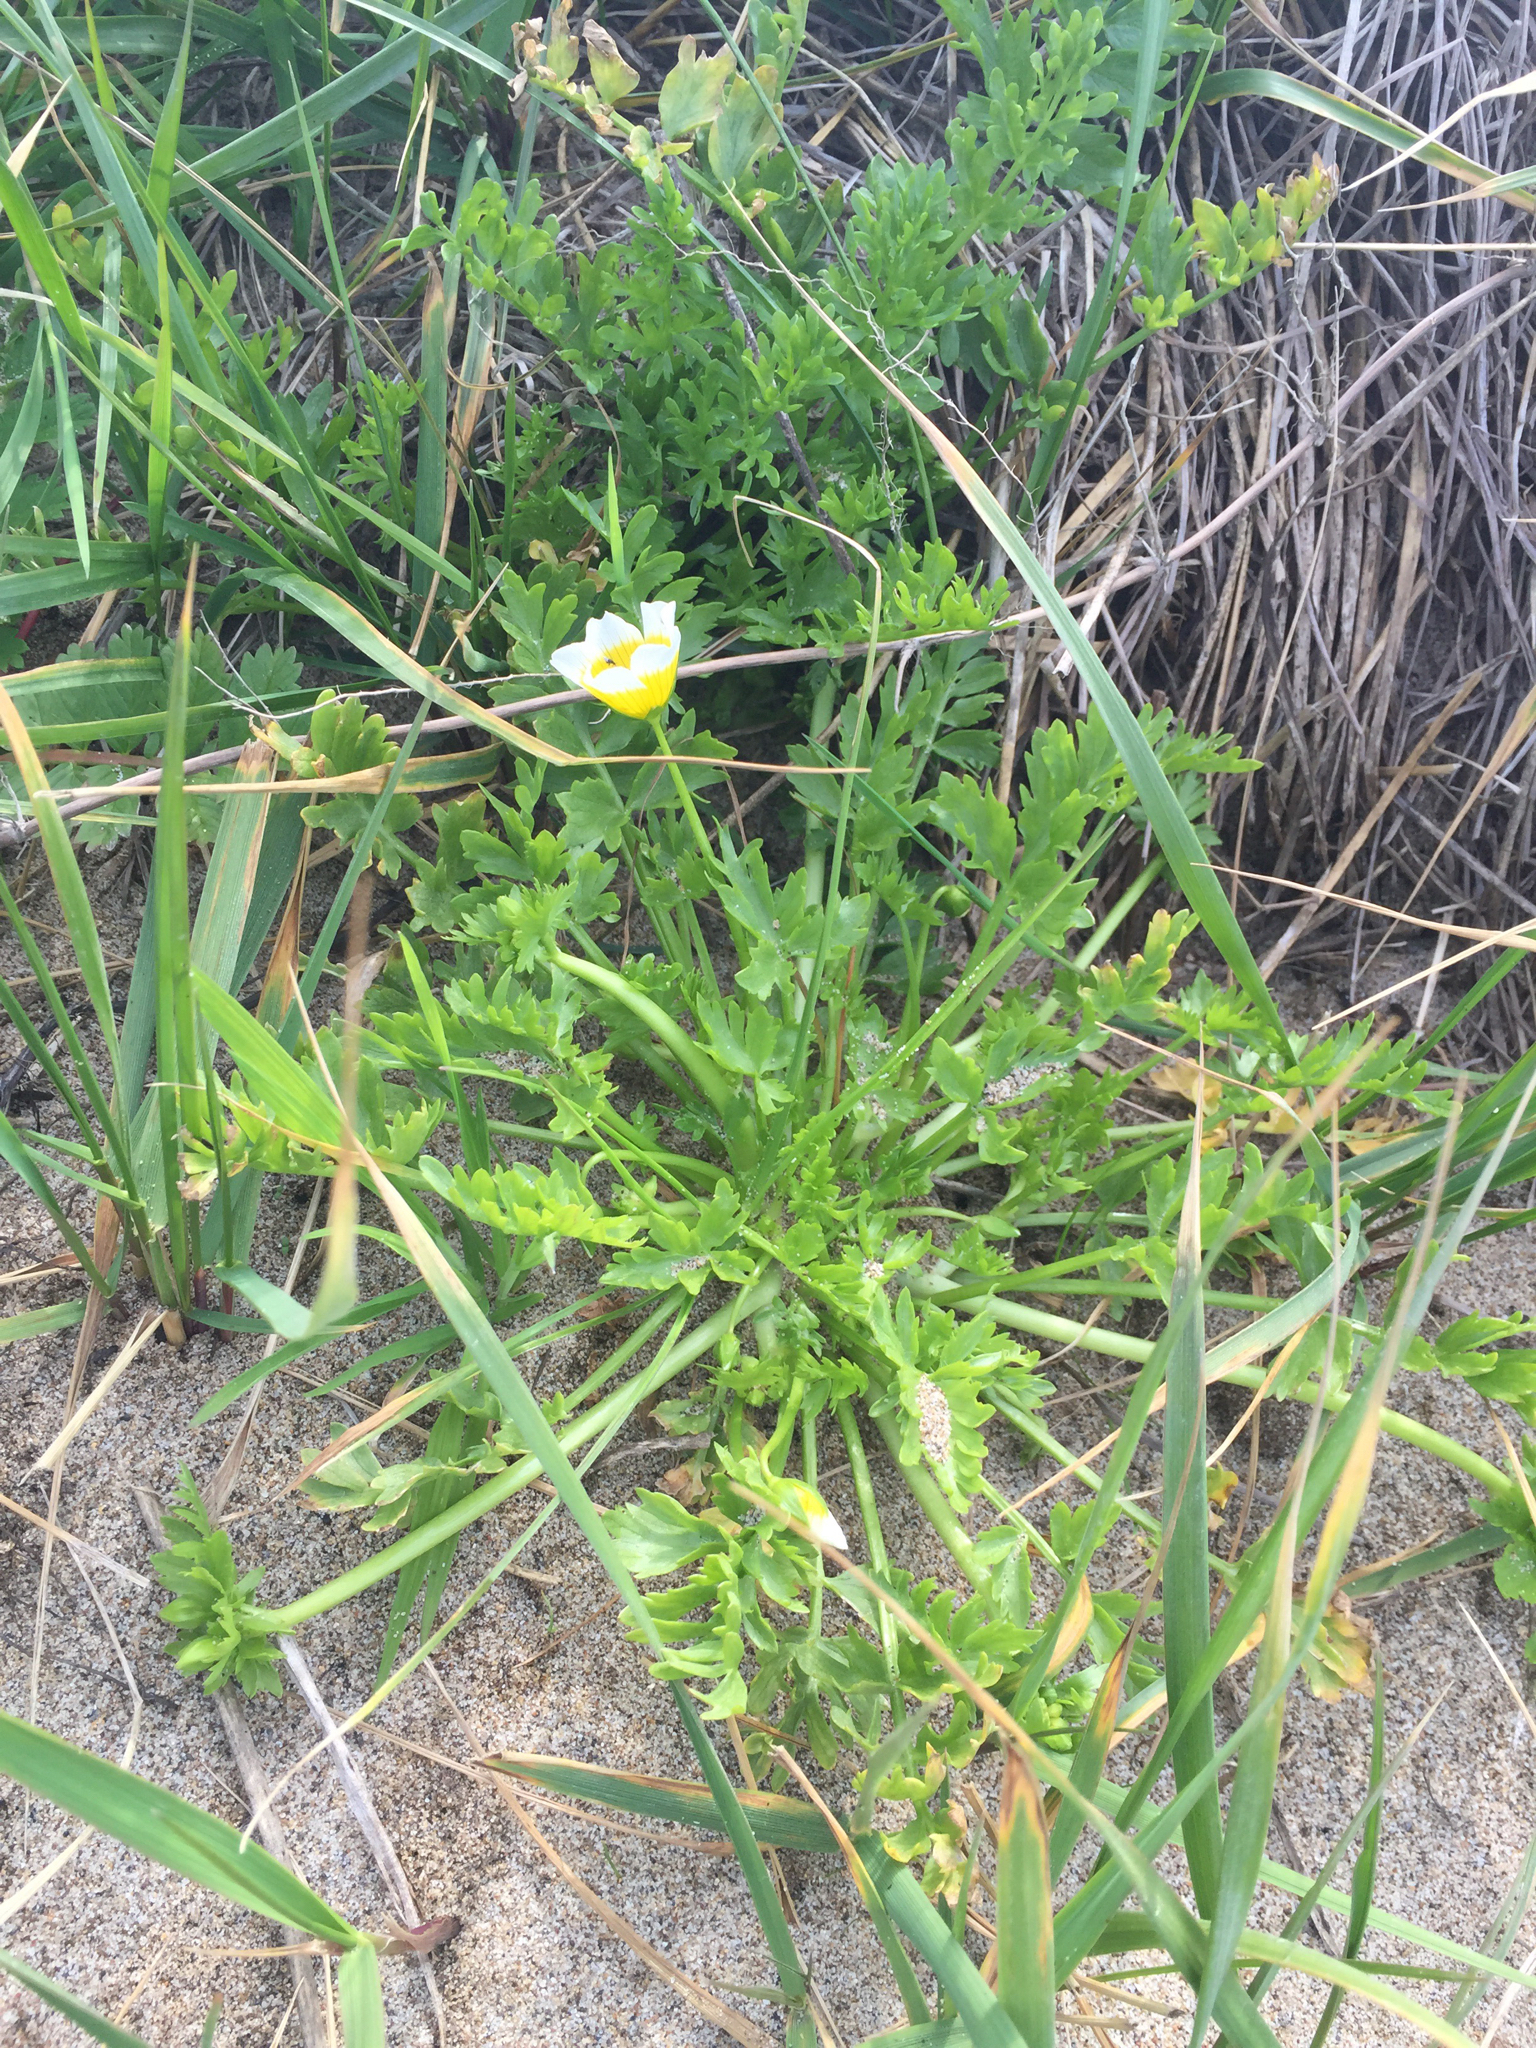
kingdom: Plantae
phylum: Tracheophyta
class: Magnoliopsida
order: Brassicales
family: Limnanthaceae
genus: Limnanthes
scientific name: Limnanthes douglasii
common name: Meadow-foam
